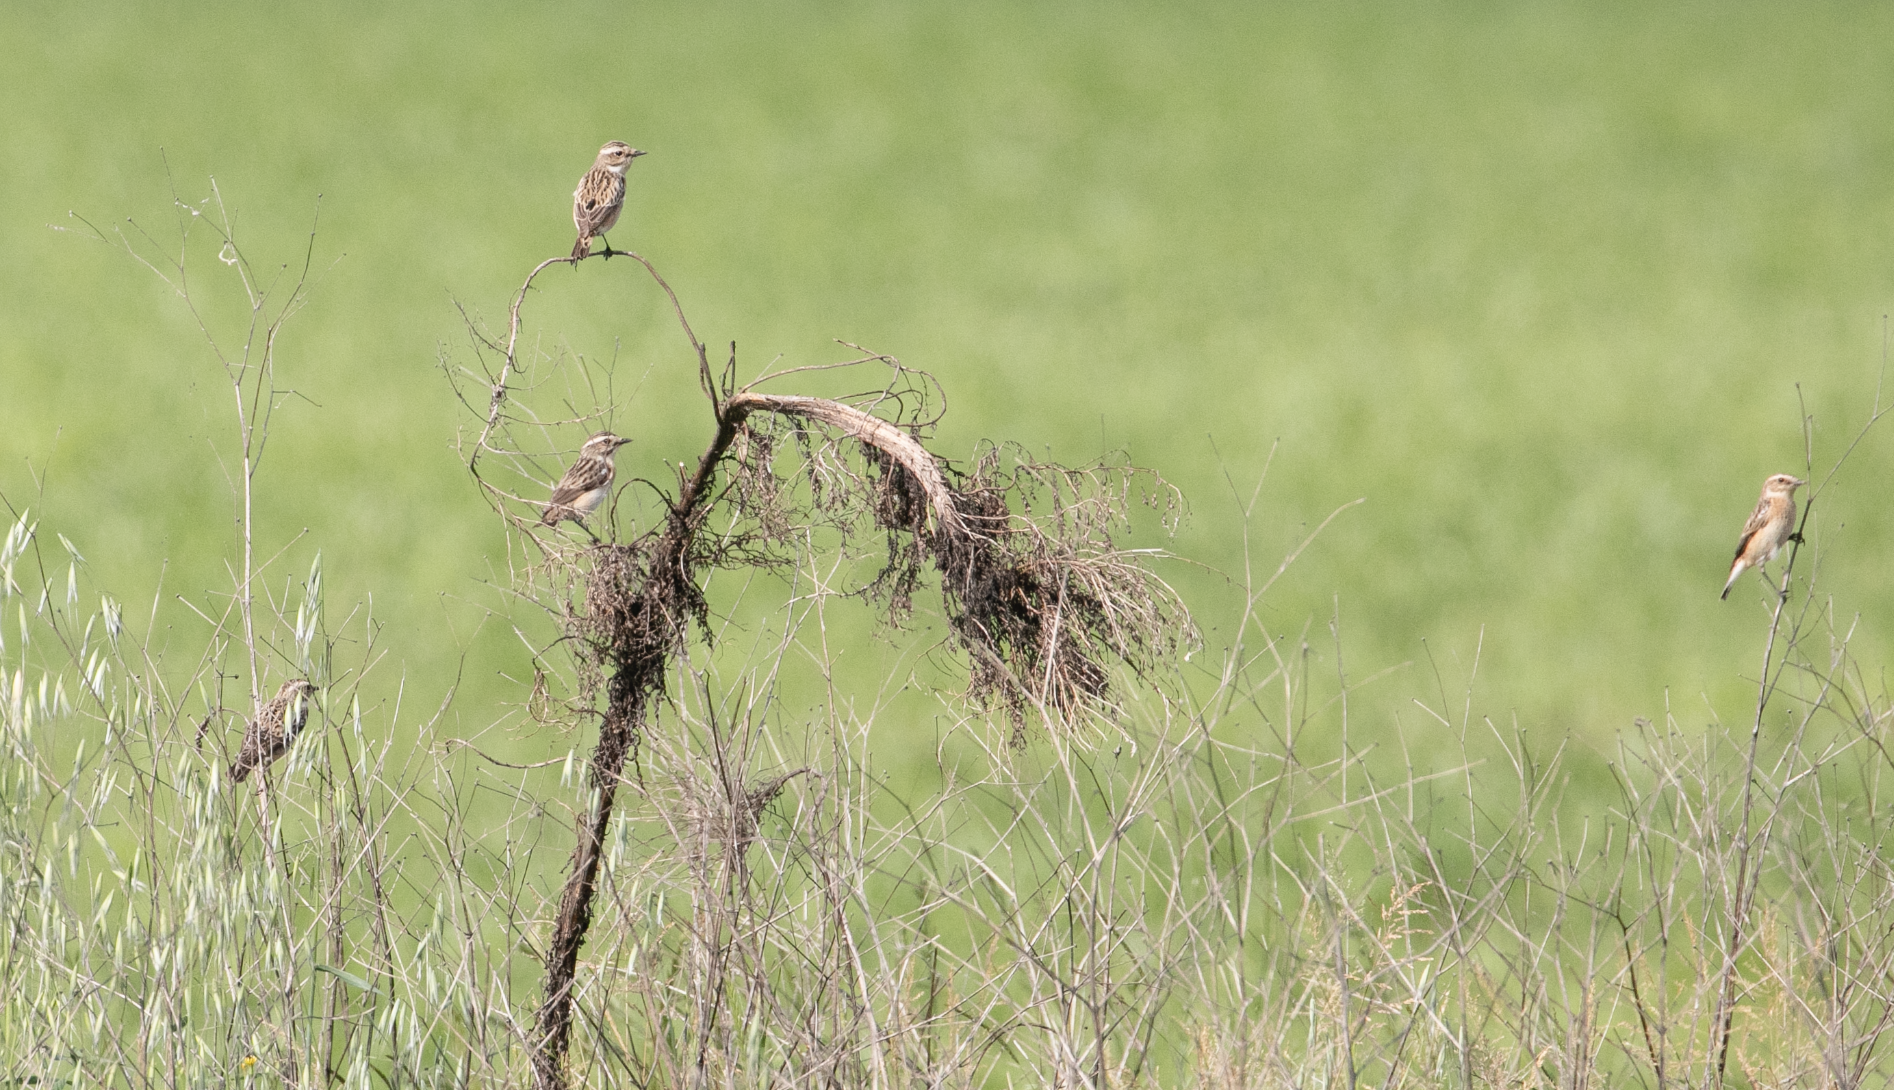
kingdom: Animalia
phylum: Chordata
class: Aves
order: Passeriformes
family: Muscicapidae
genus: Saxicola
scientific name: Saxicola rubetra
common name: Whinchat
